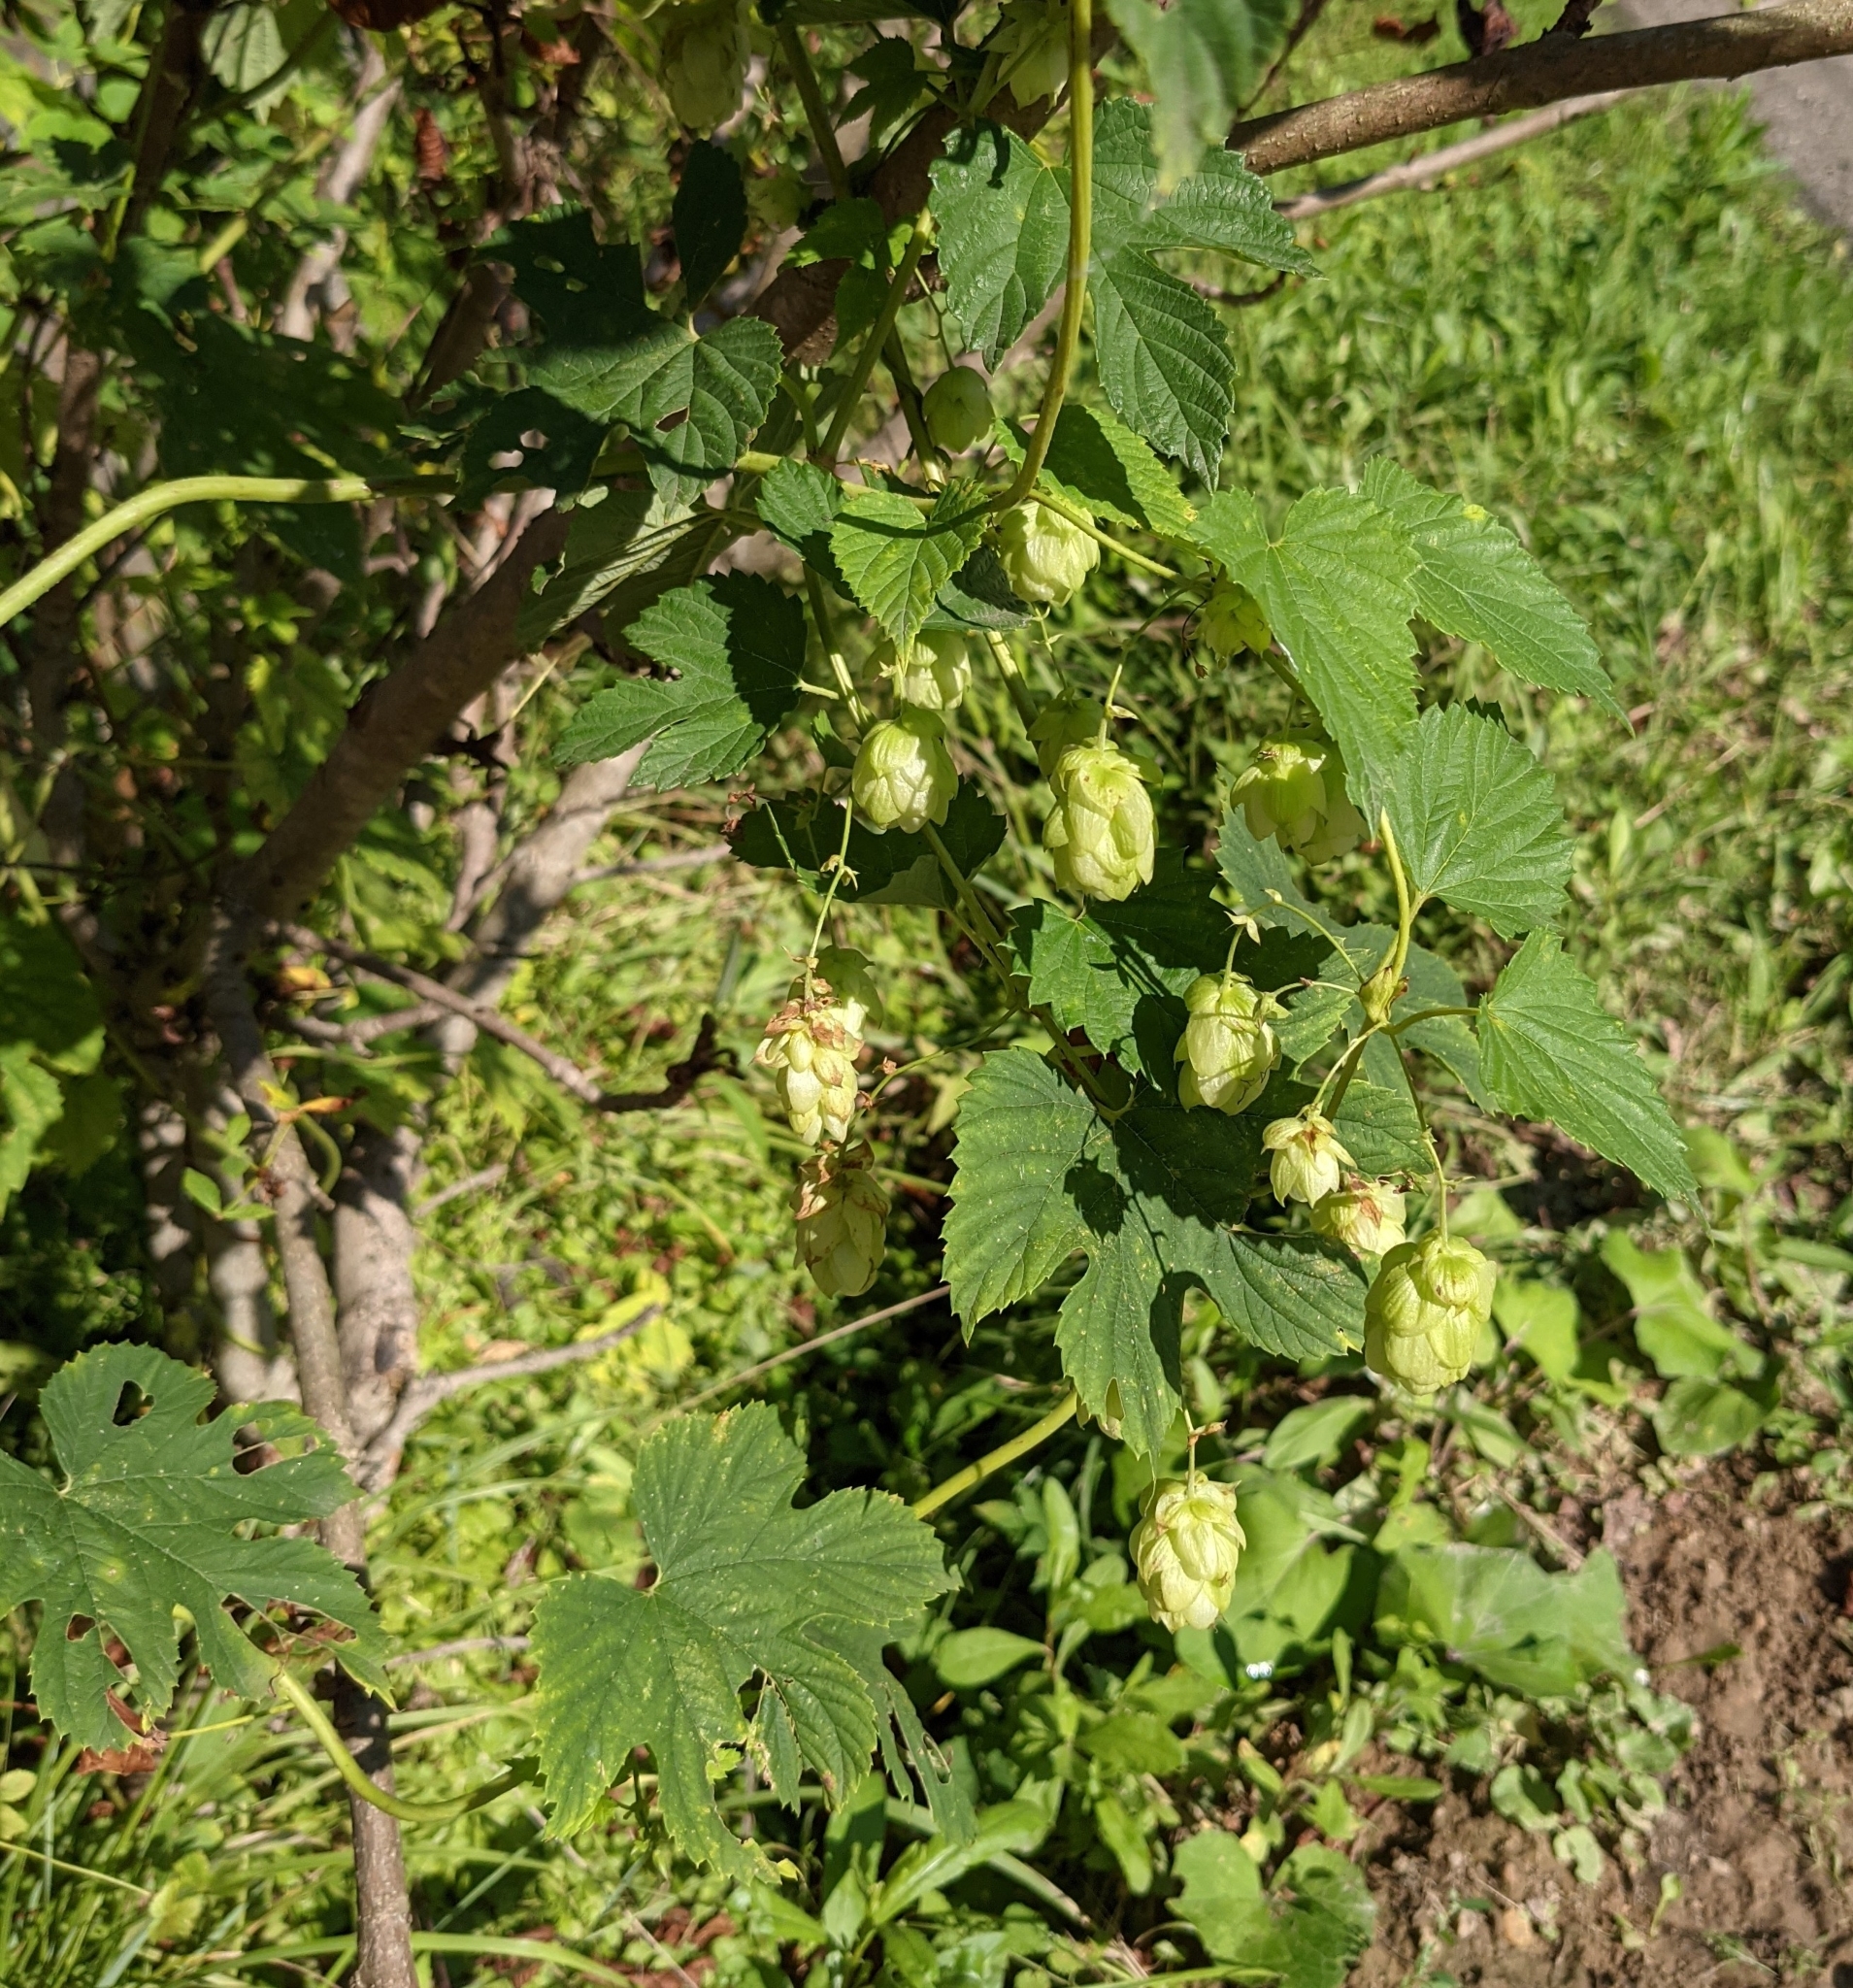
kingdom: Plantae
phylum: Tracheophyta
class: Magnoliopsida
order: Rosales
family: Cannabaceae
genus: Humulus
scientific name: Humulus lupulus
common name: Hop
